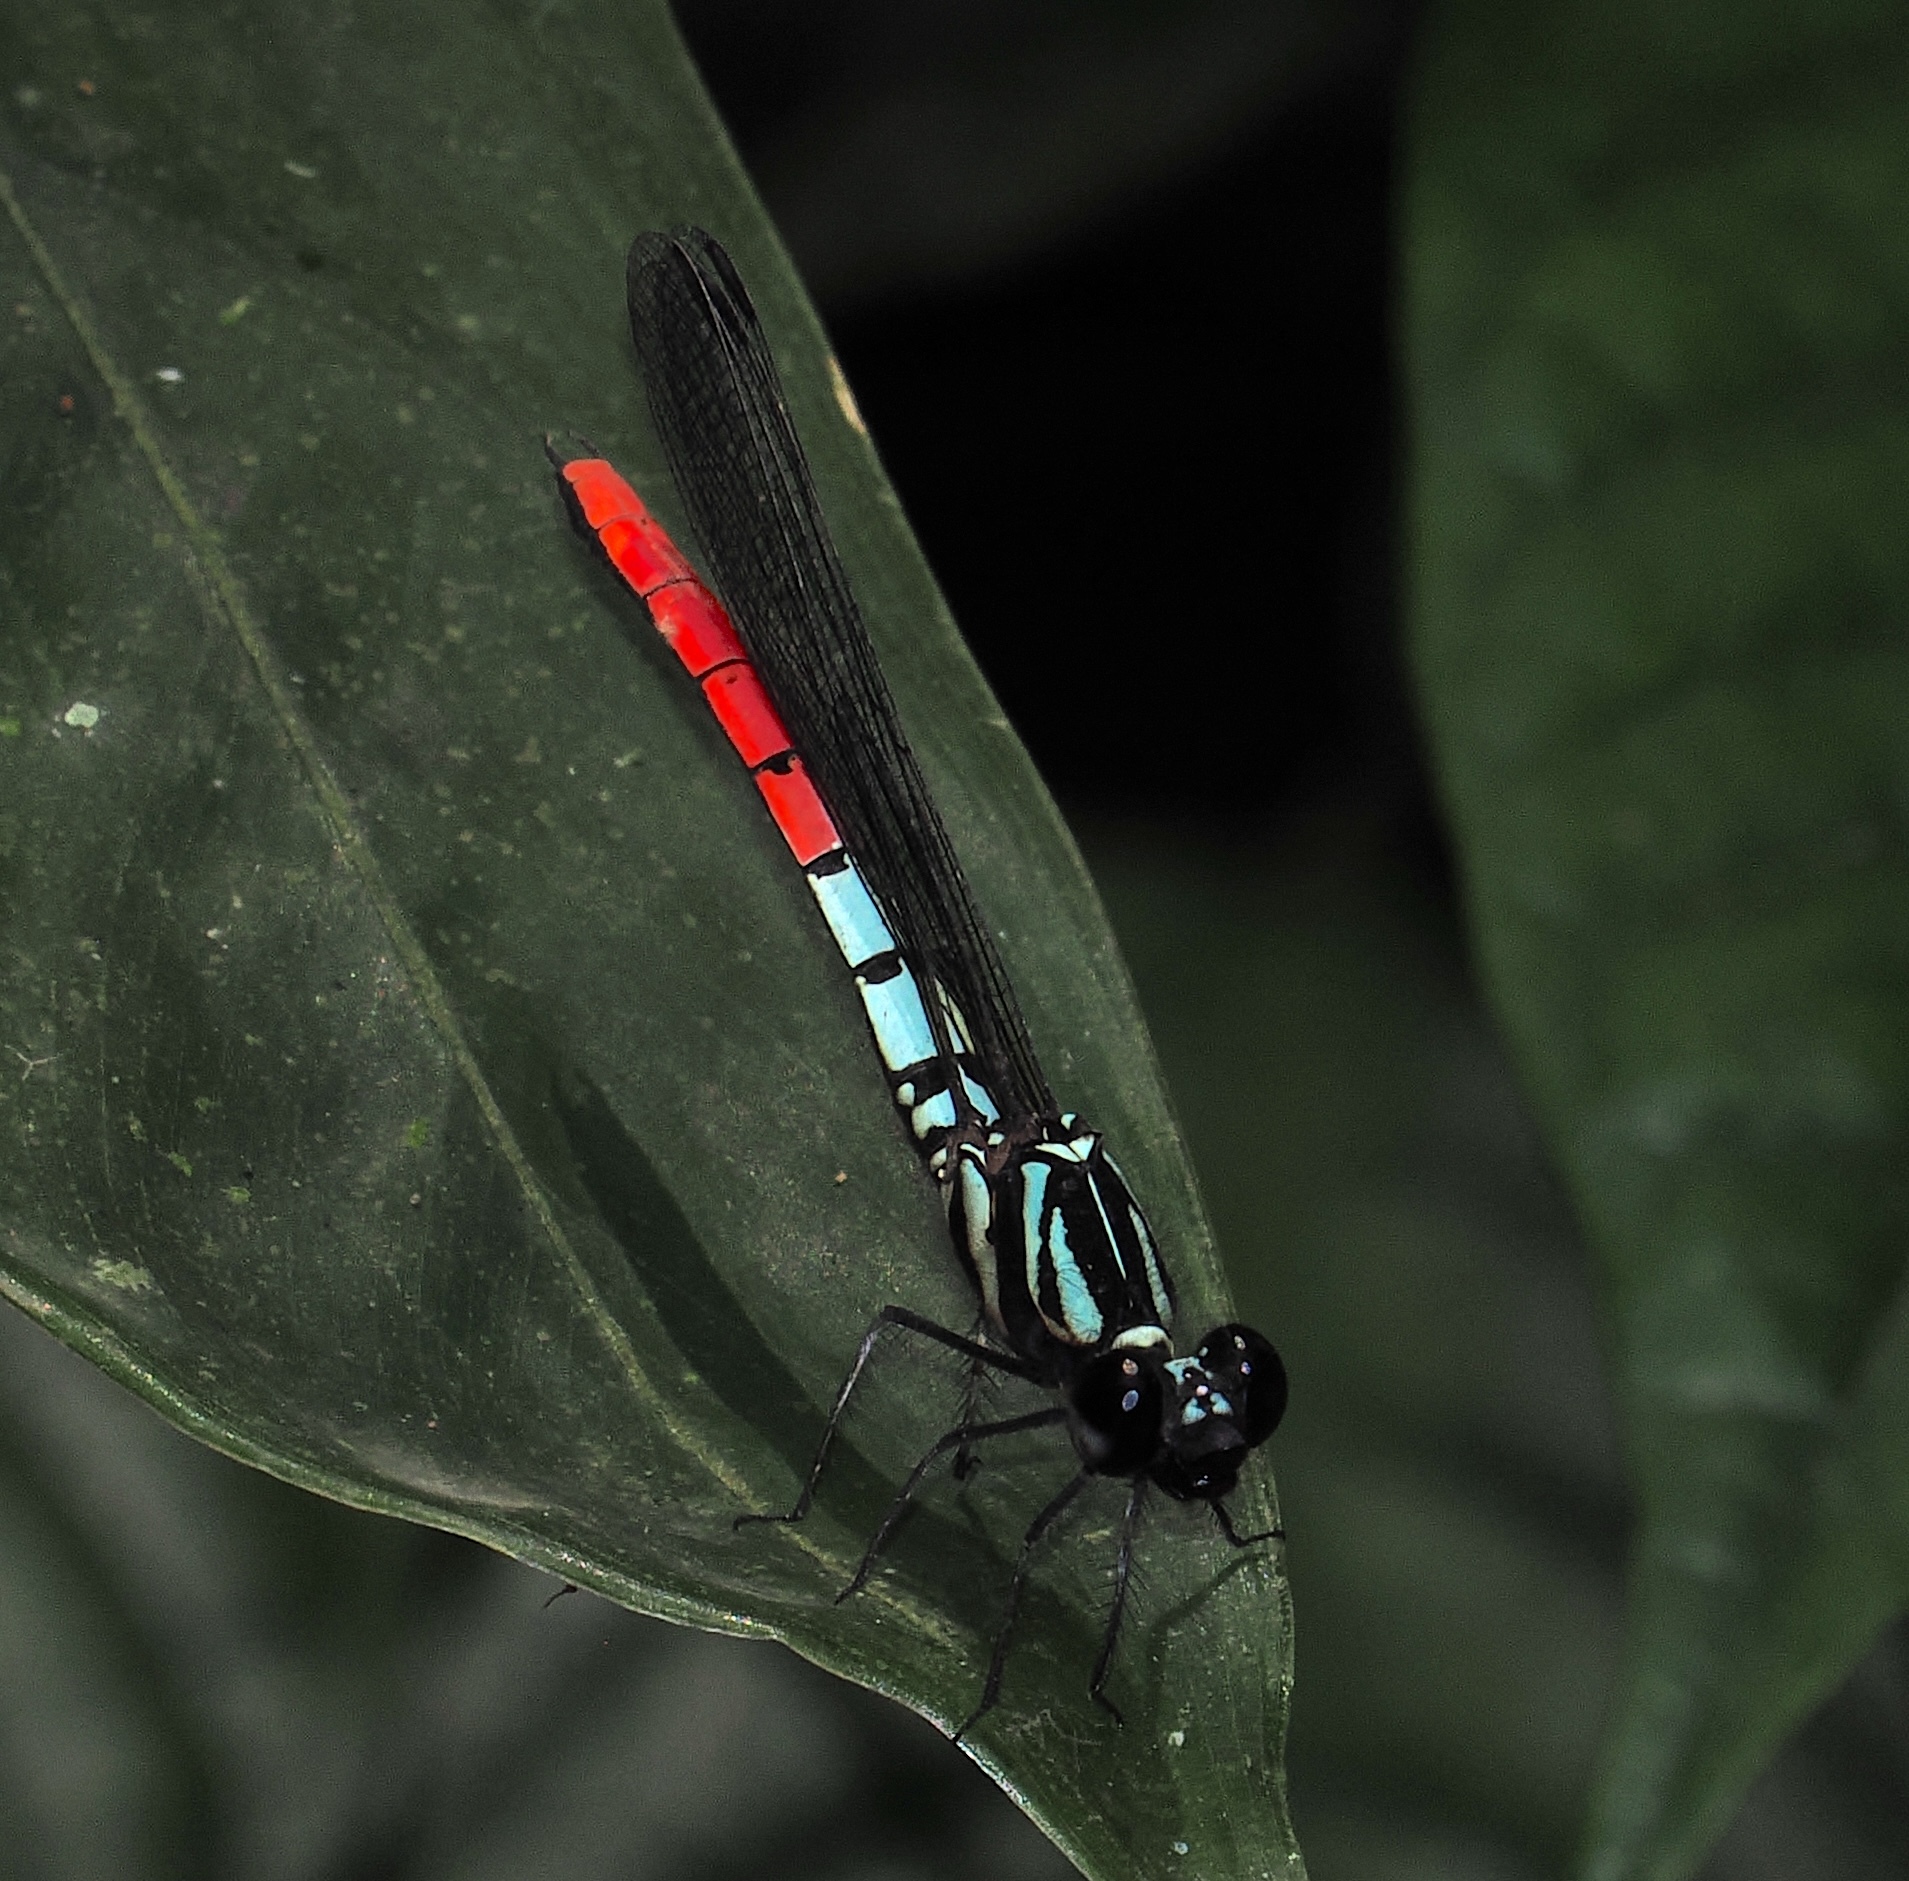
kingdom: Animalia
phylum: Arthropoda
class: Insecta
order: Odonata
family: Chlorocyphidae
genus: Chlorocypha
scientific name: Chlorocypha radix
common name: Western red-tipped jewel
